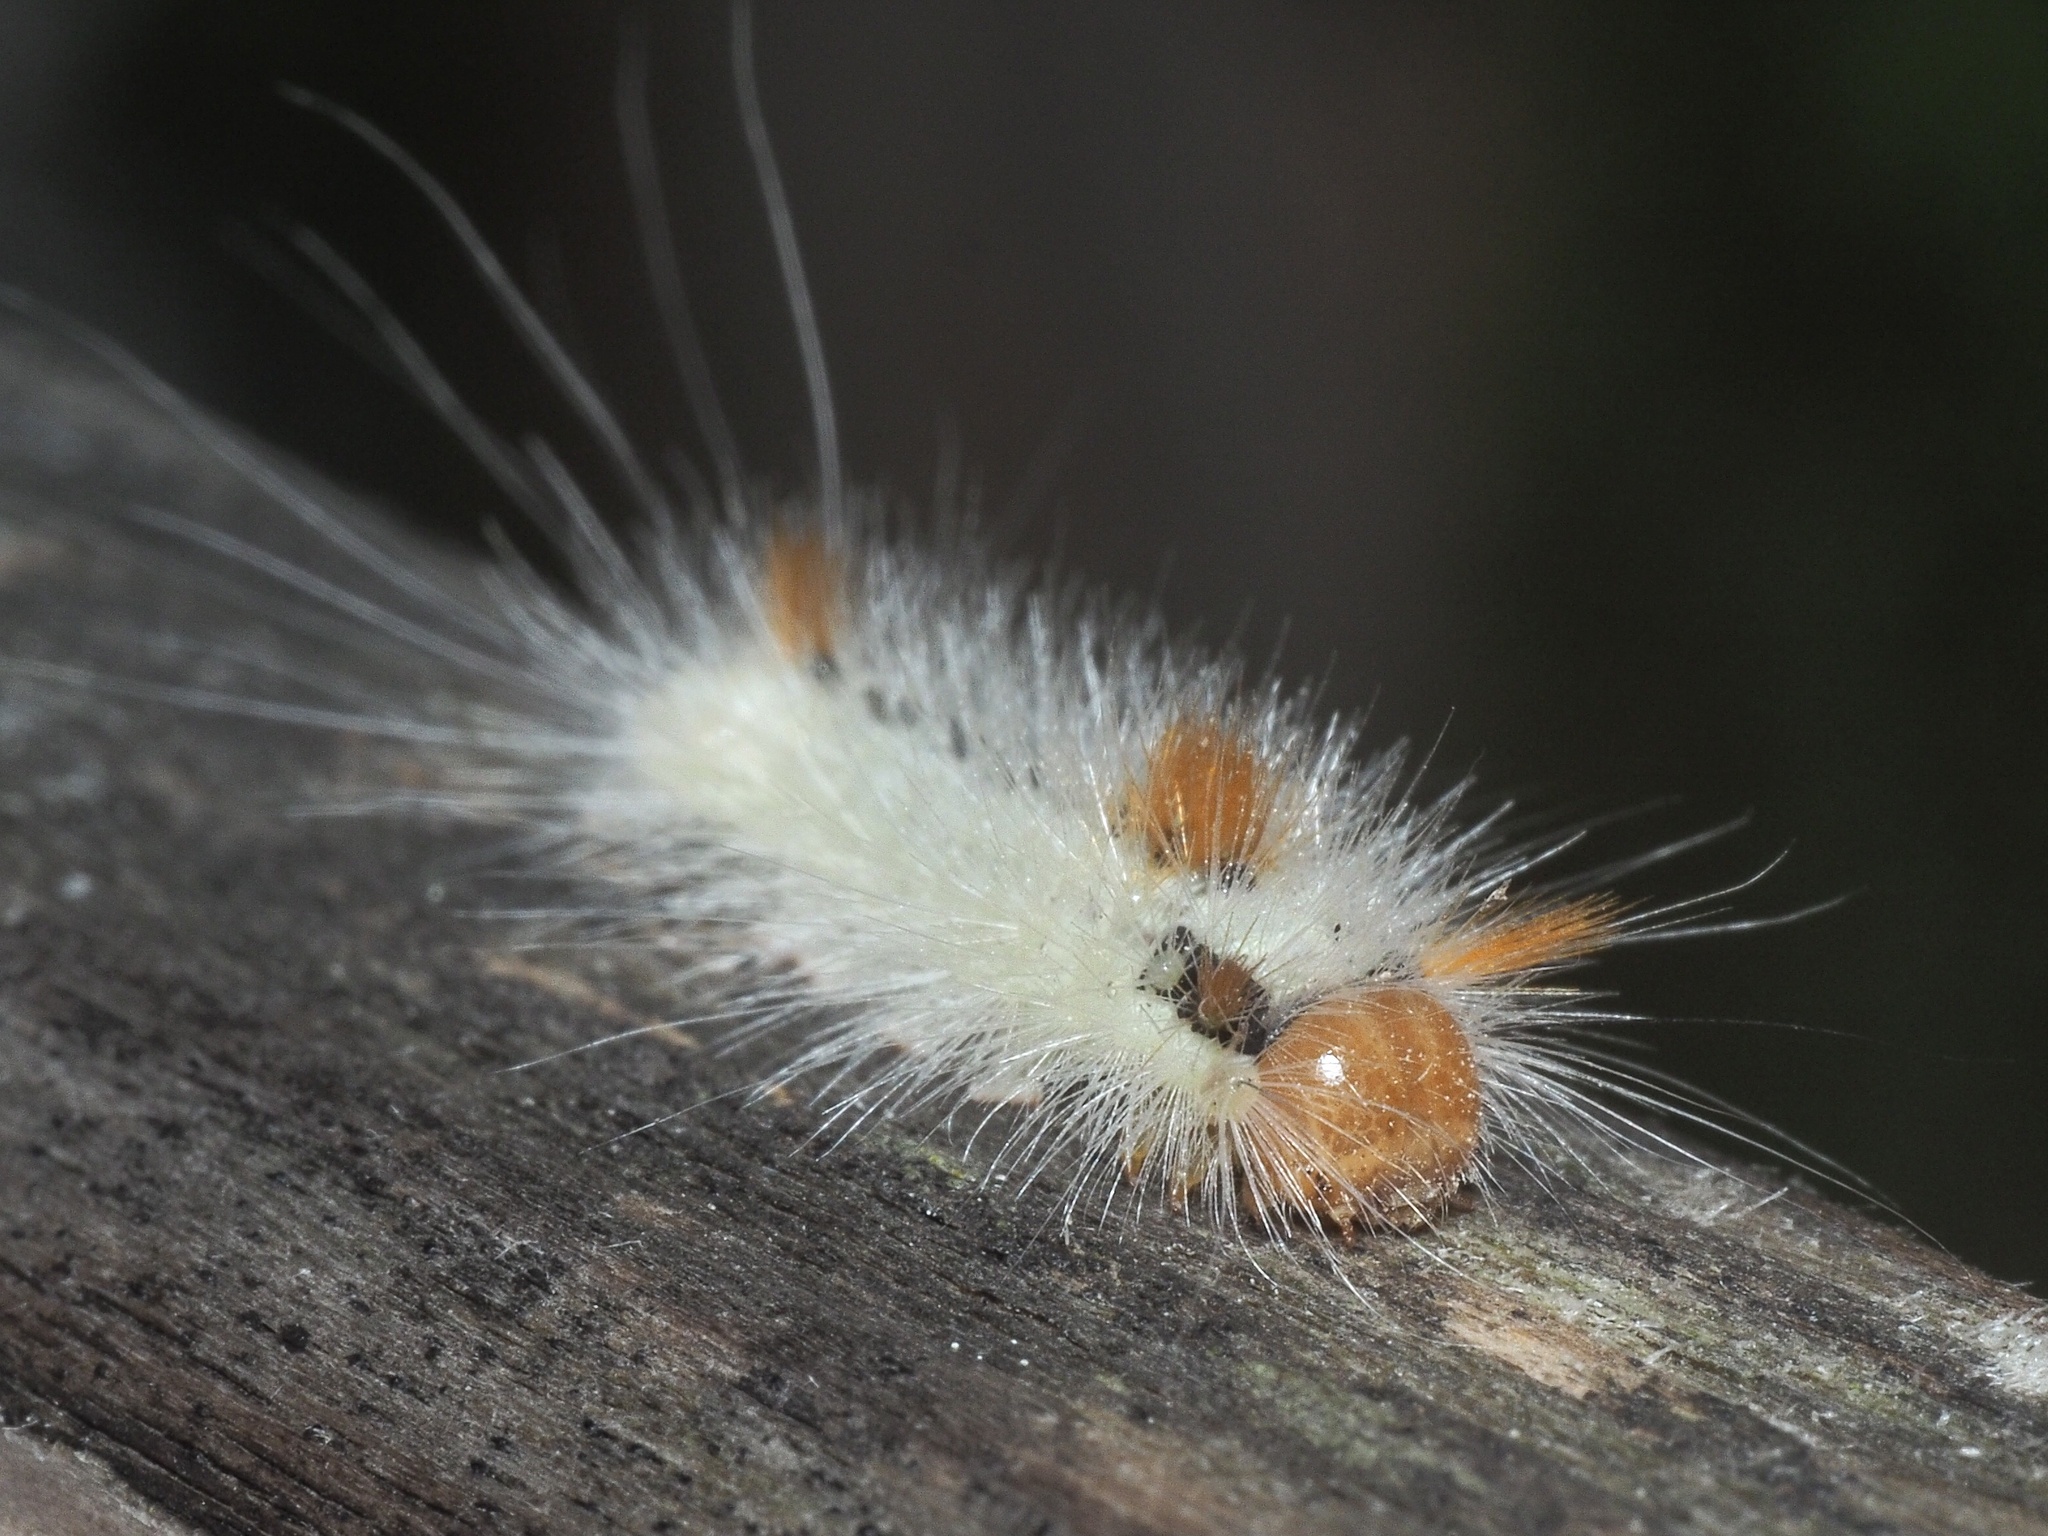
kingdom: Animalia
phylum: Arthropoda
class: Insecta
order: Lepidoptera
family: Noctuidae
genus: Colocasia
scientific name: Colocasia coryli
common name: Nut-tree tussock
